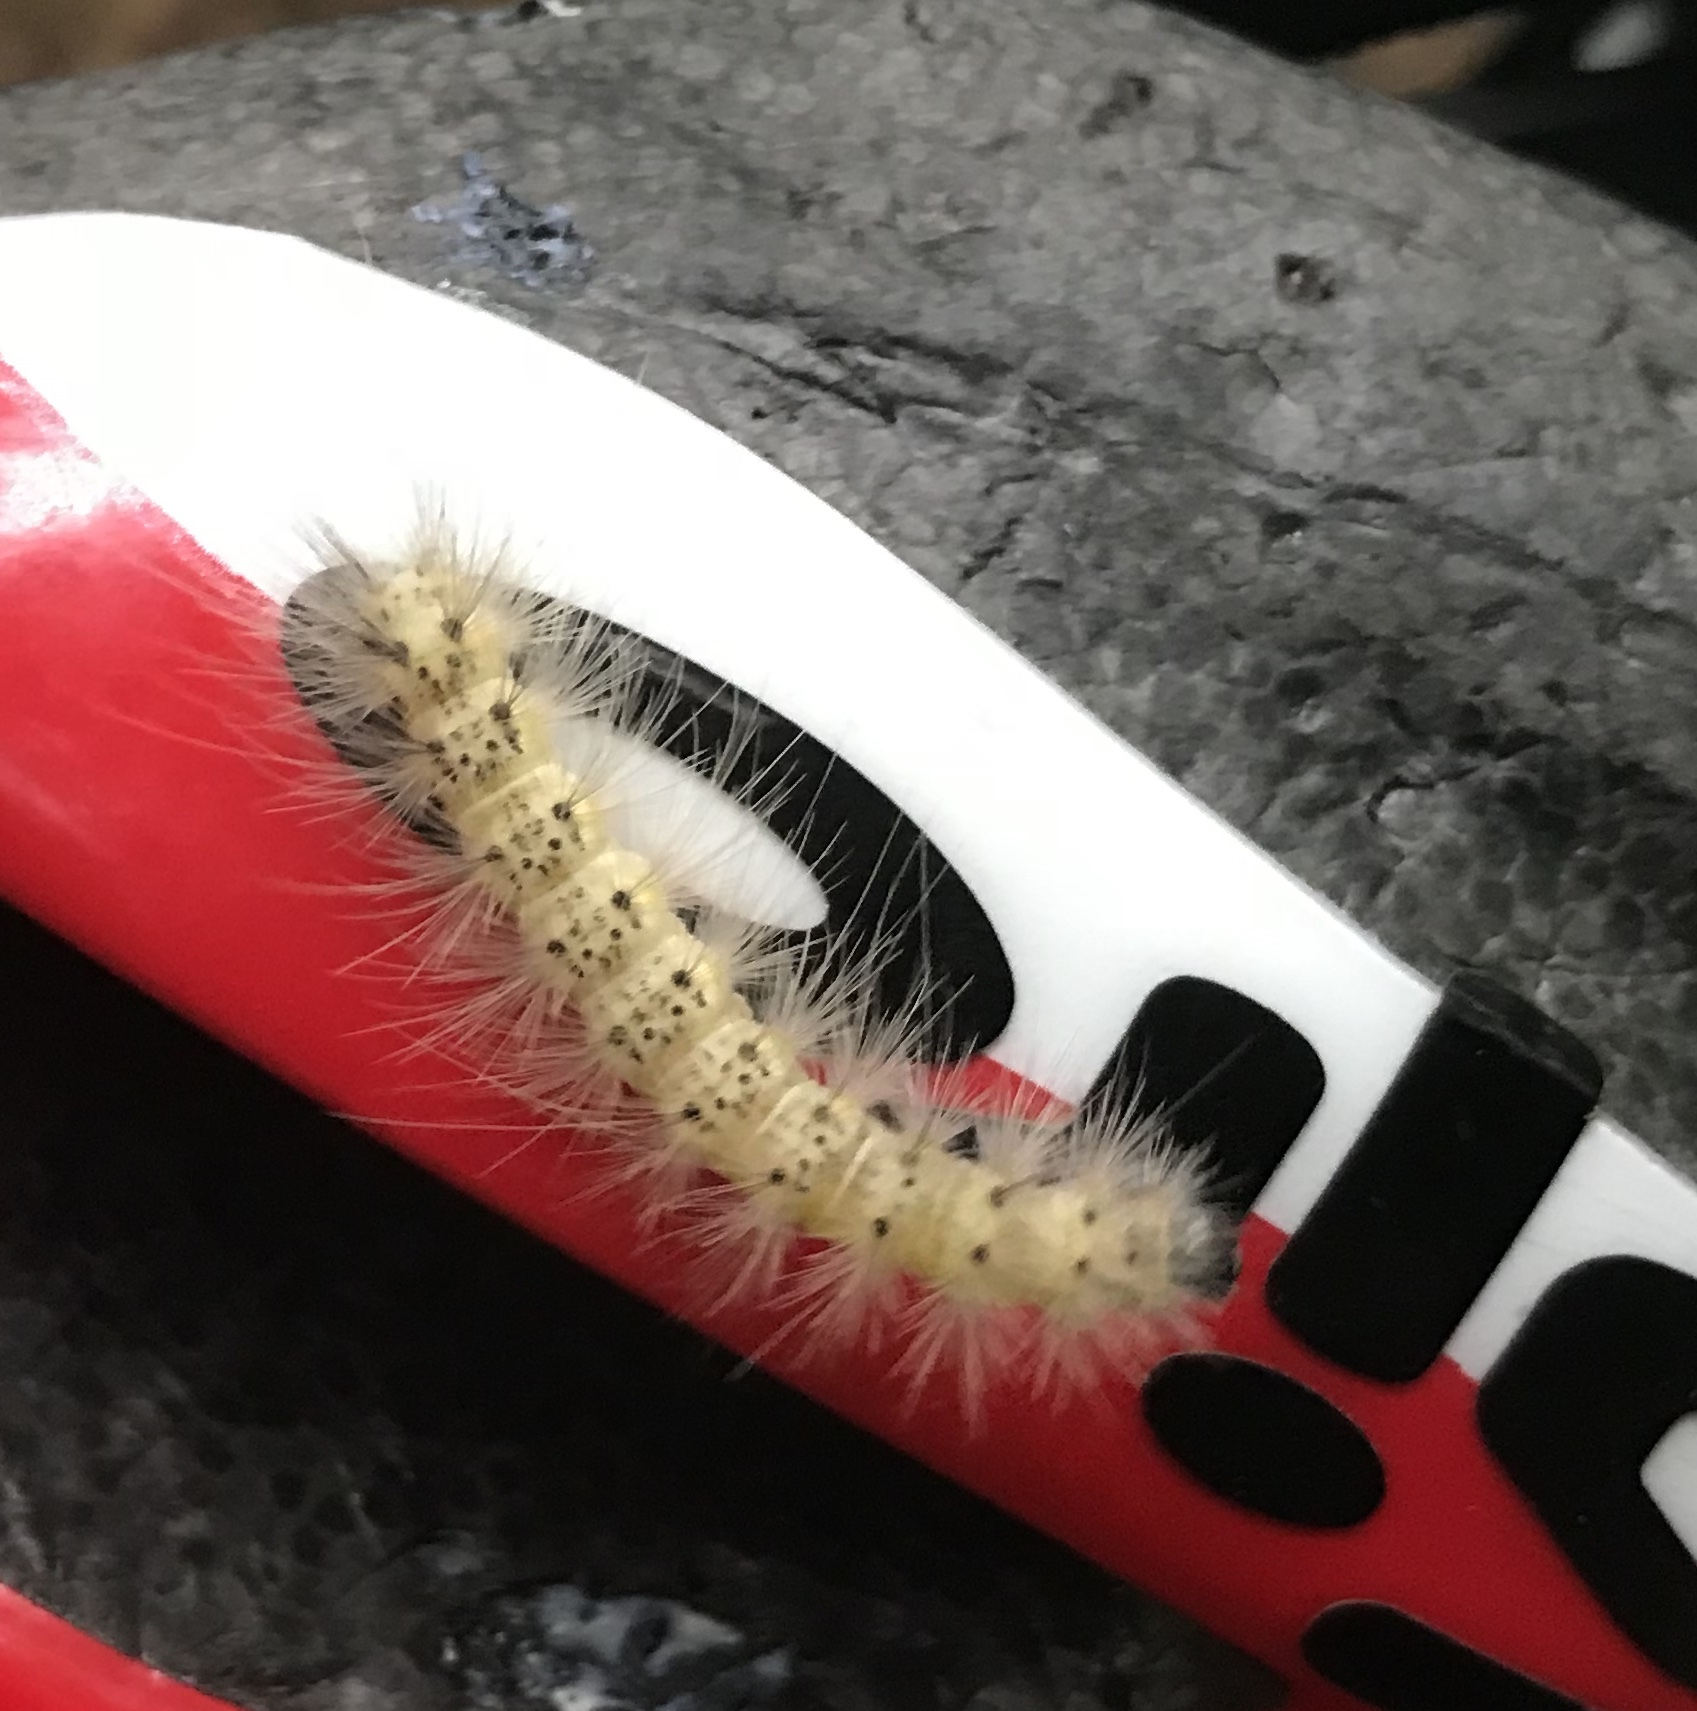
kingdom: Animalia
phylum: Arthropoda
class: Insecta
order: Lepidoptera
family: Erebidae
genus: Hyphantria
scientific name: Hyphantria cunea
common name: American white moth
